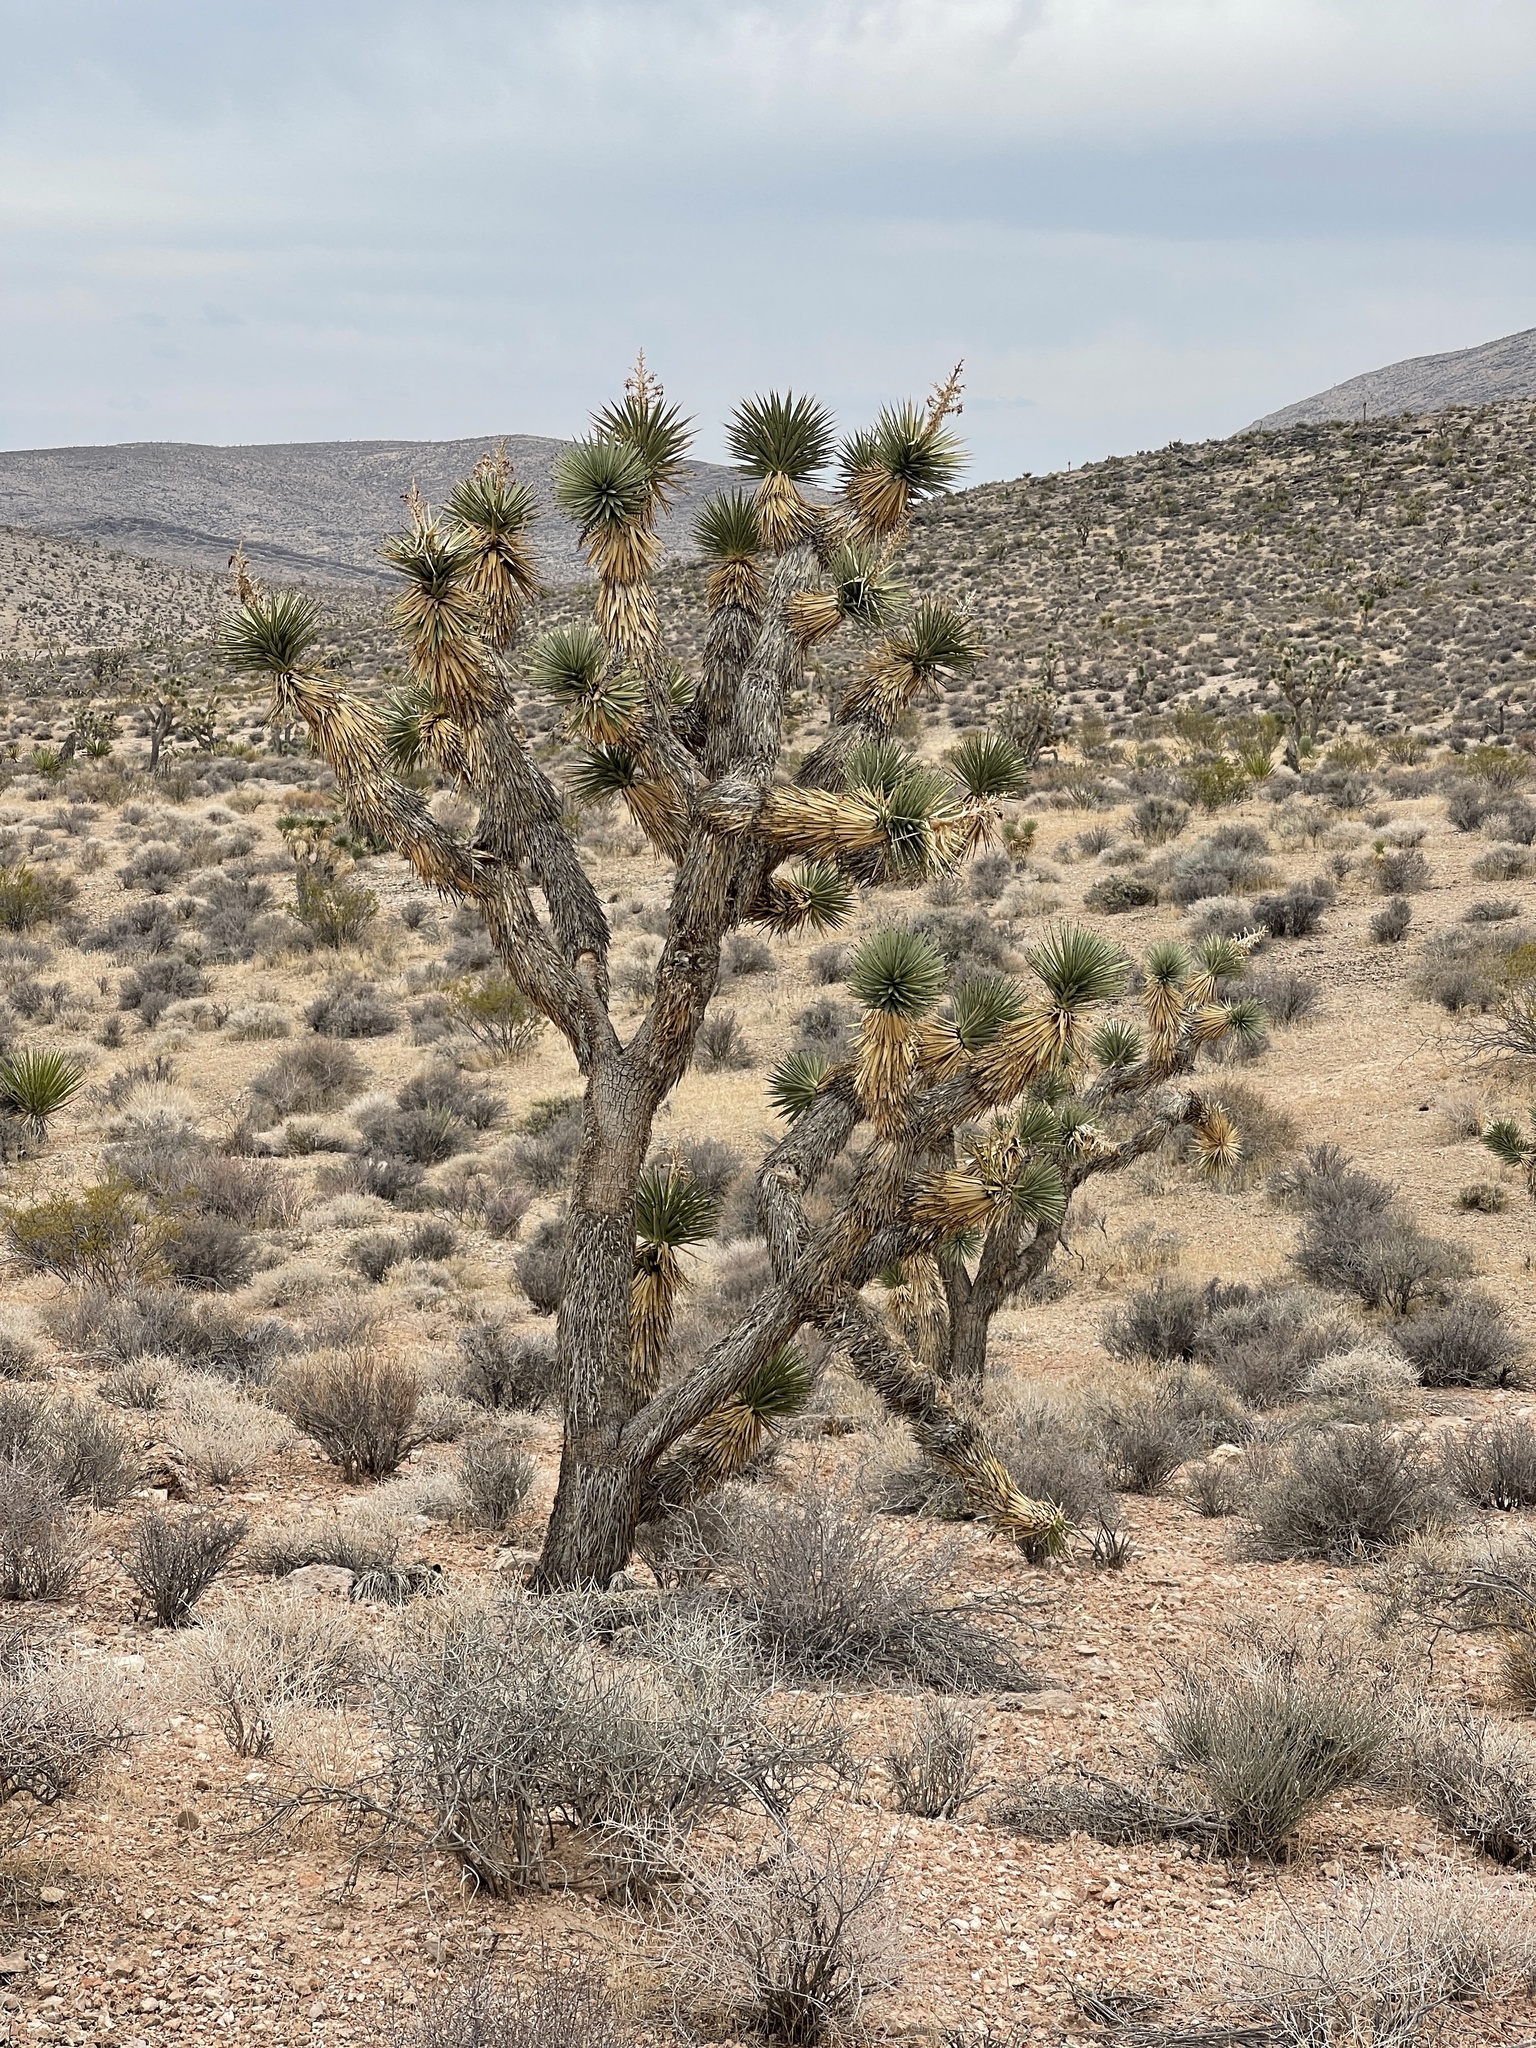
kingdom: Plantae
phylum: Tracheophyta
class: Liliopsida
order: Asparagales
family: Asparagaceae
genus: Yucca
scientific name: Yucca brevifolia
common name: Joshua tree
